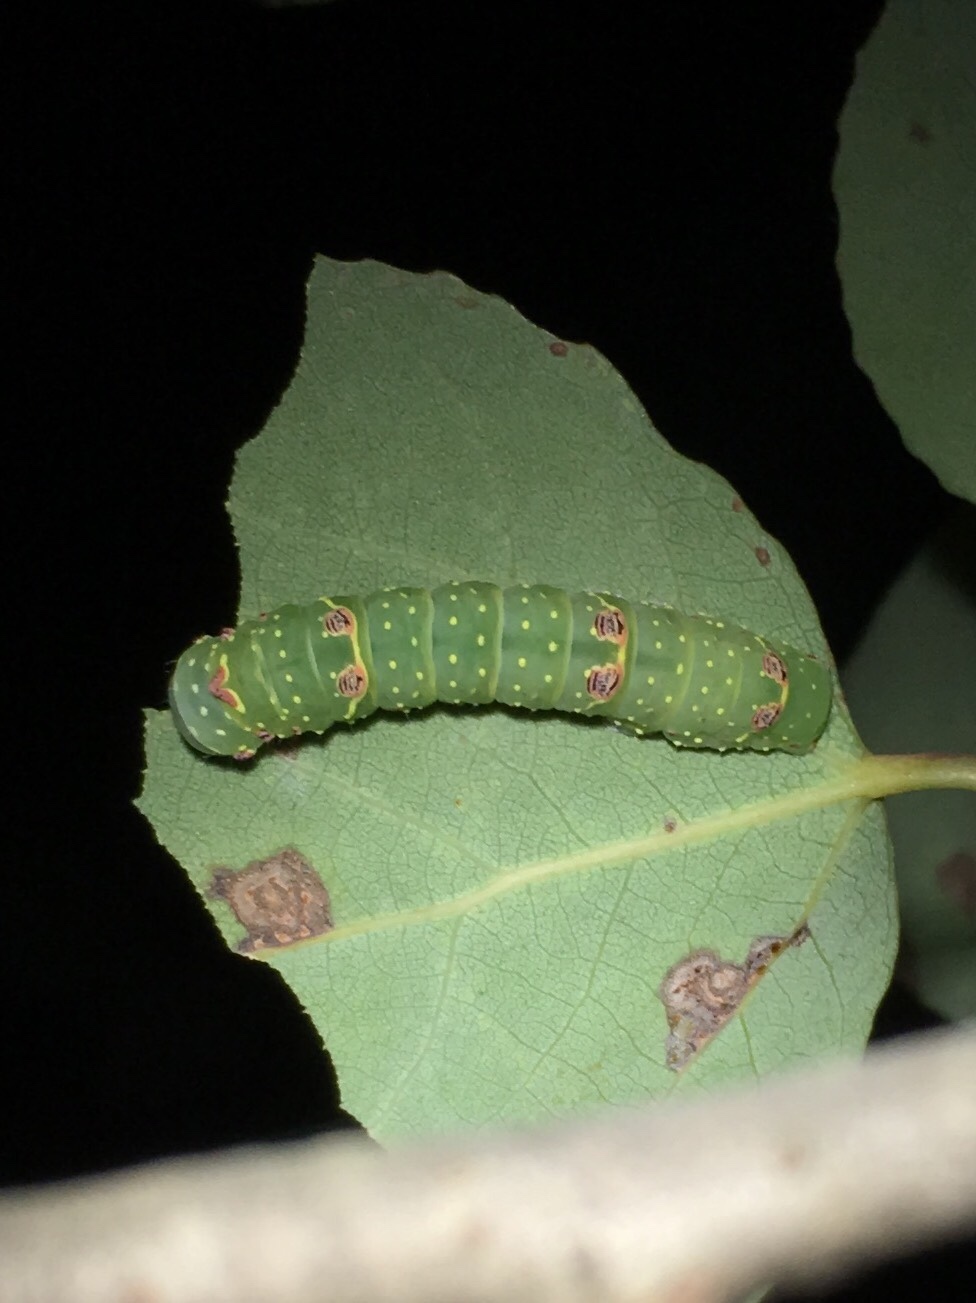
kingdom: Animalia
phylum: Arthropoda
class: Insecta
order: Lepidoptera
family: Noctuidae
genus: Raphia
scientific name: Raphia frater
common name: Brother
